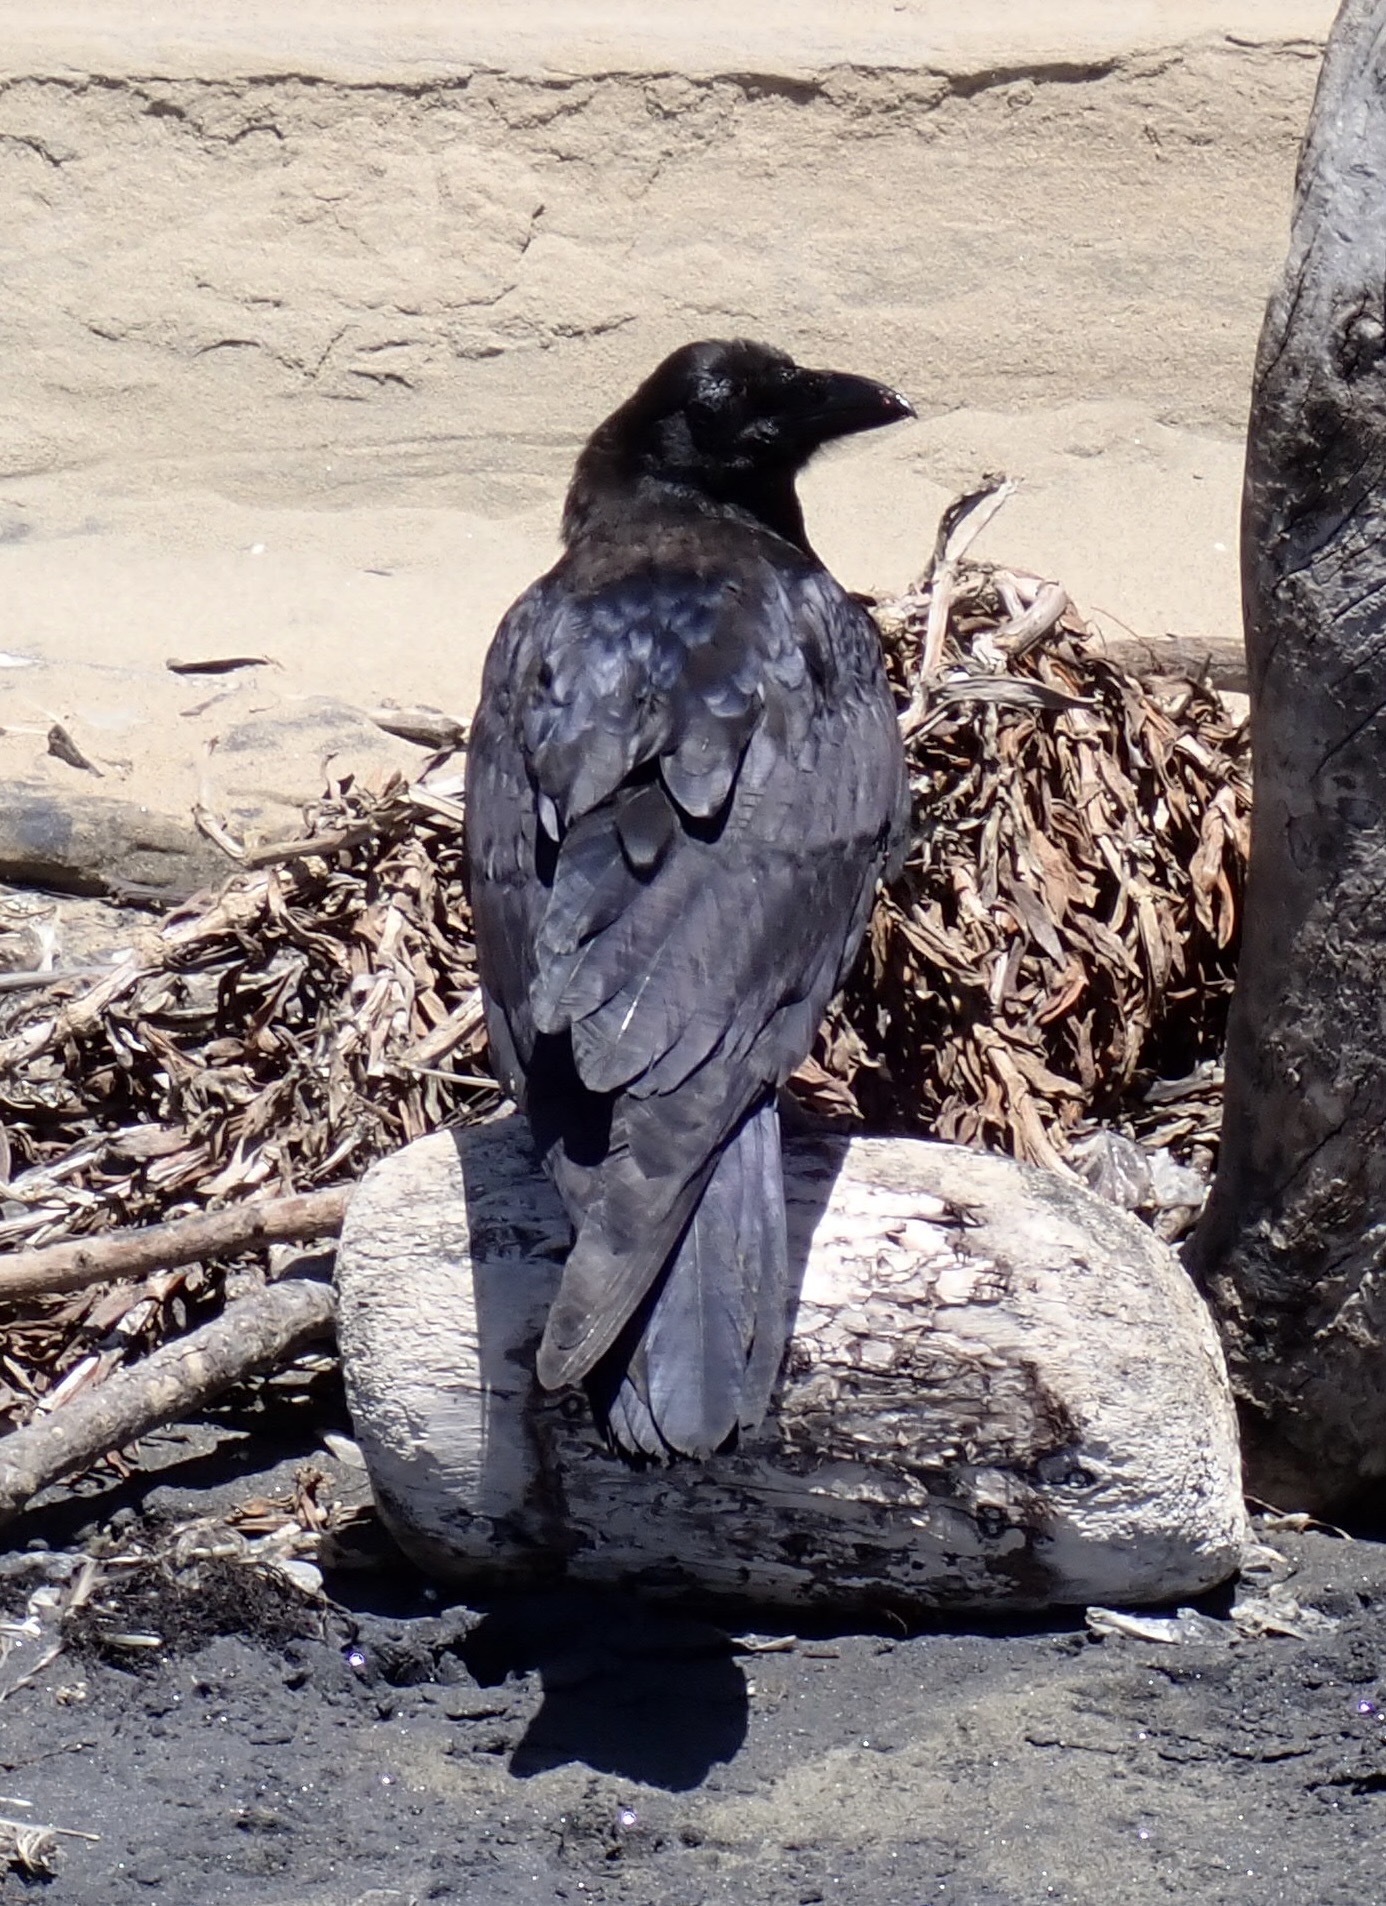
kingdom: Animalia
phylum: Chordata
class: Aves
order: Passeriformes
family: Corvidae
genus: Corvus
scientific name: Corvus corax
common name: Common raven
